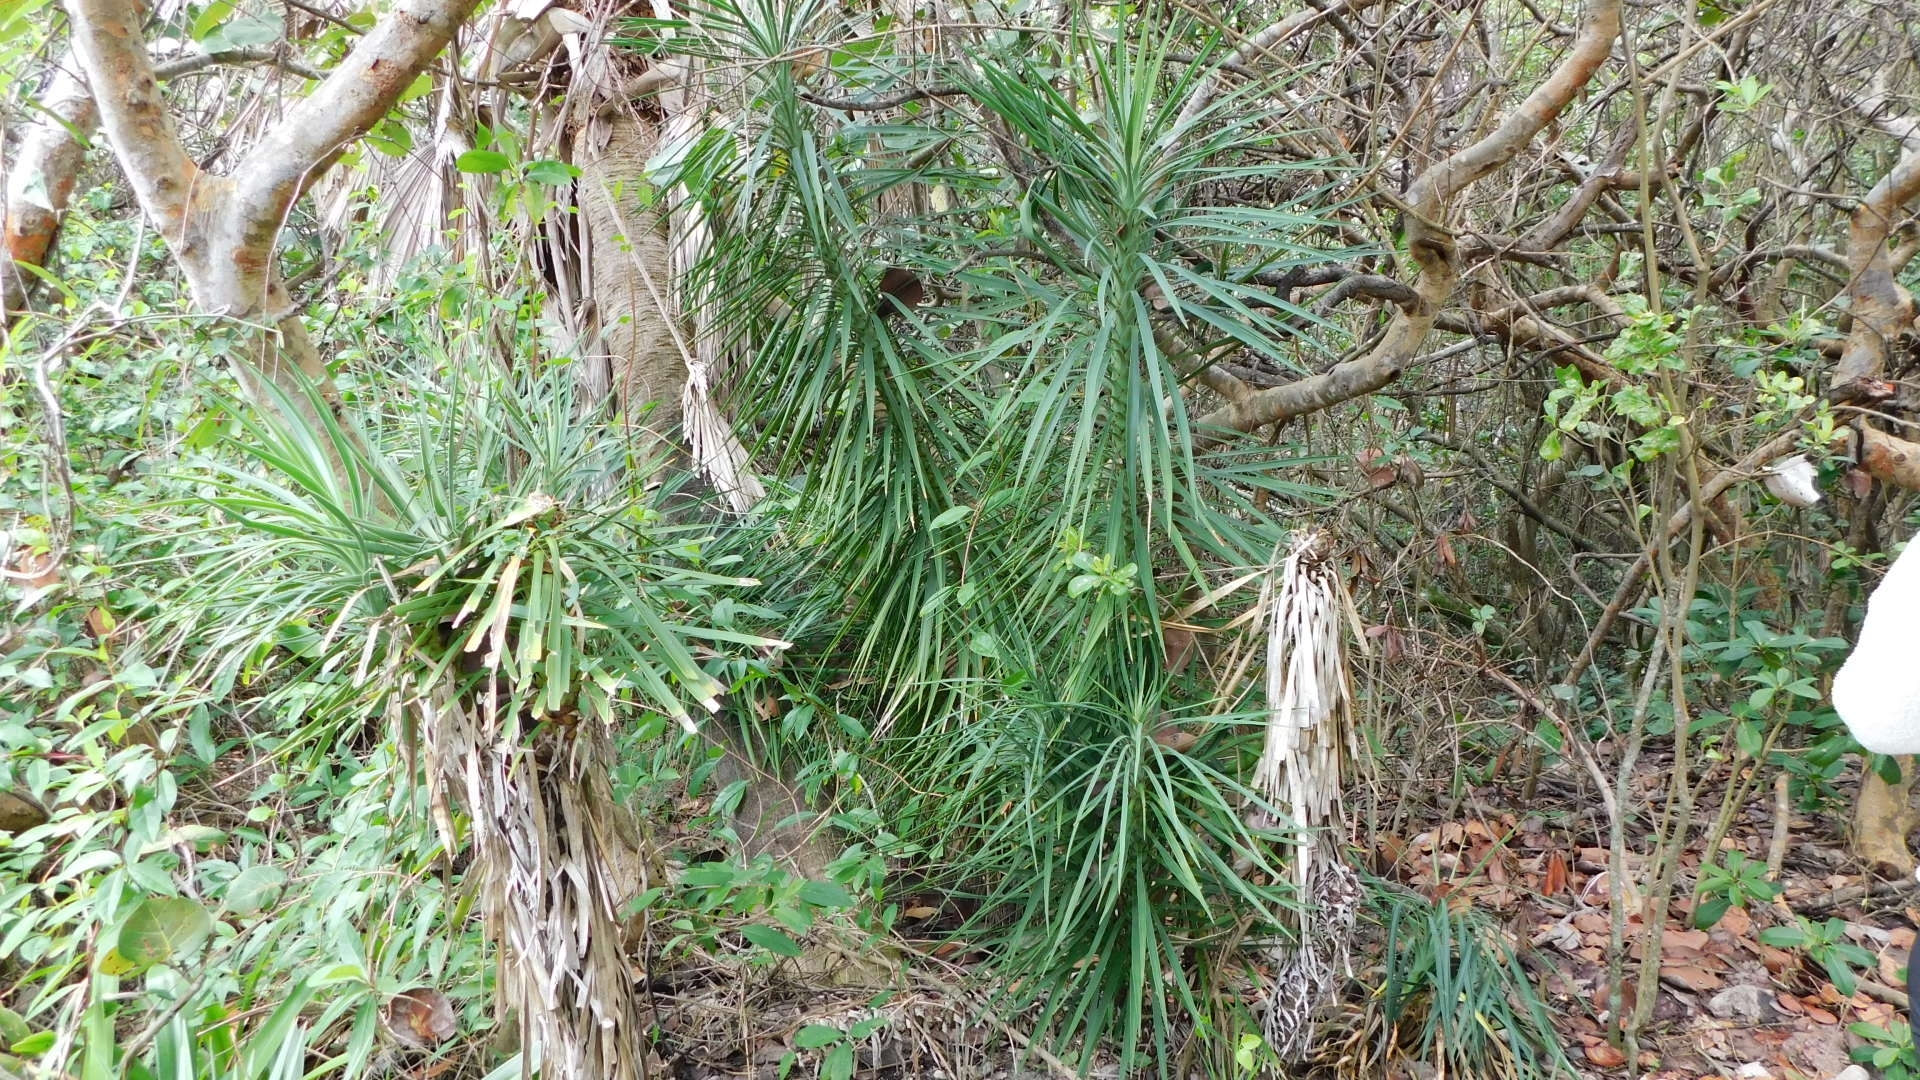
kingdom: Plantae
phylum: Tracheophyta
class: Liliopsida
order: Asparagales
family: Asparagaceae
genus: Yucca
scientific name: Yucca aloifolia
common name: Aloe yucca
